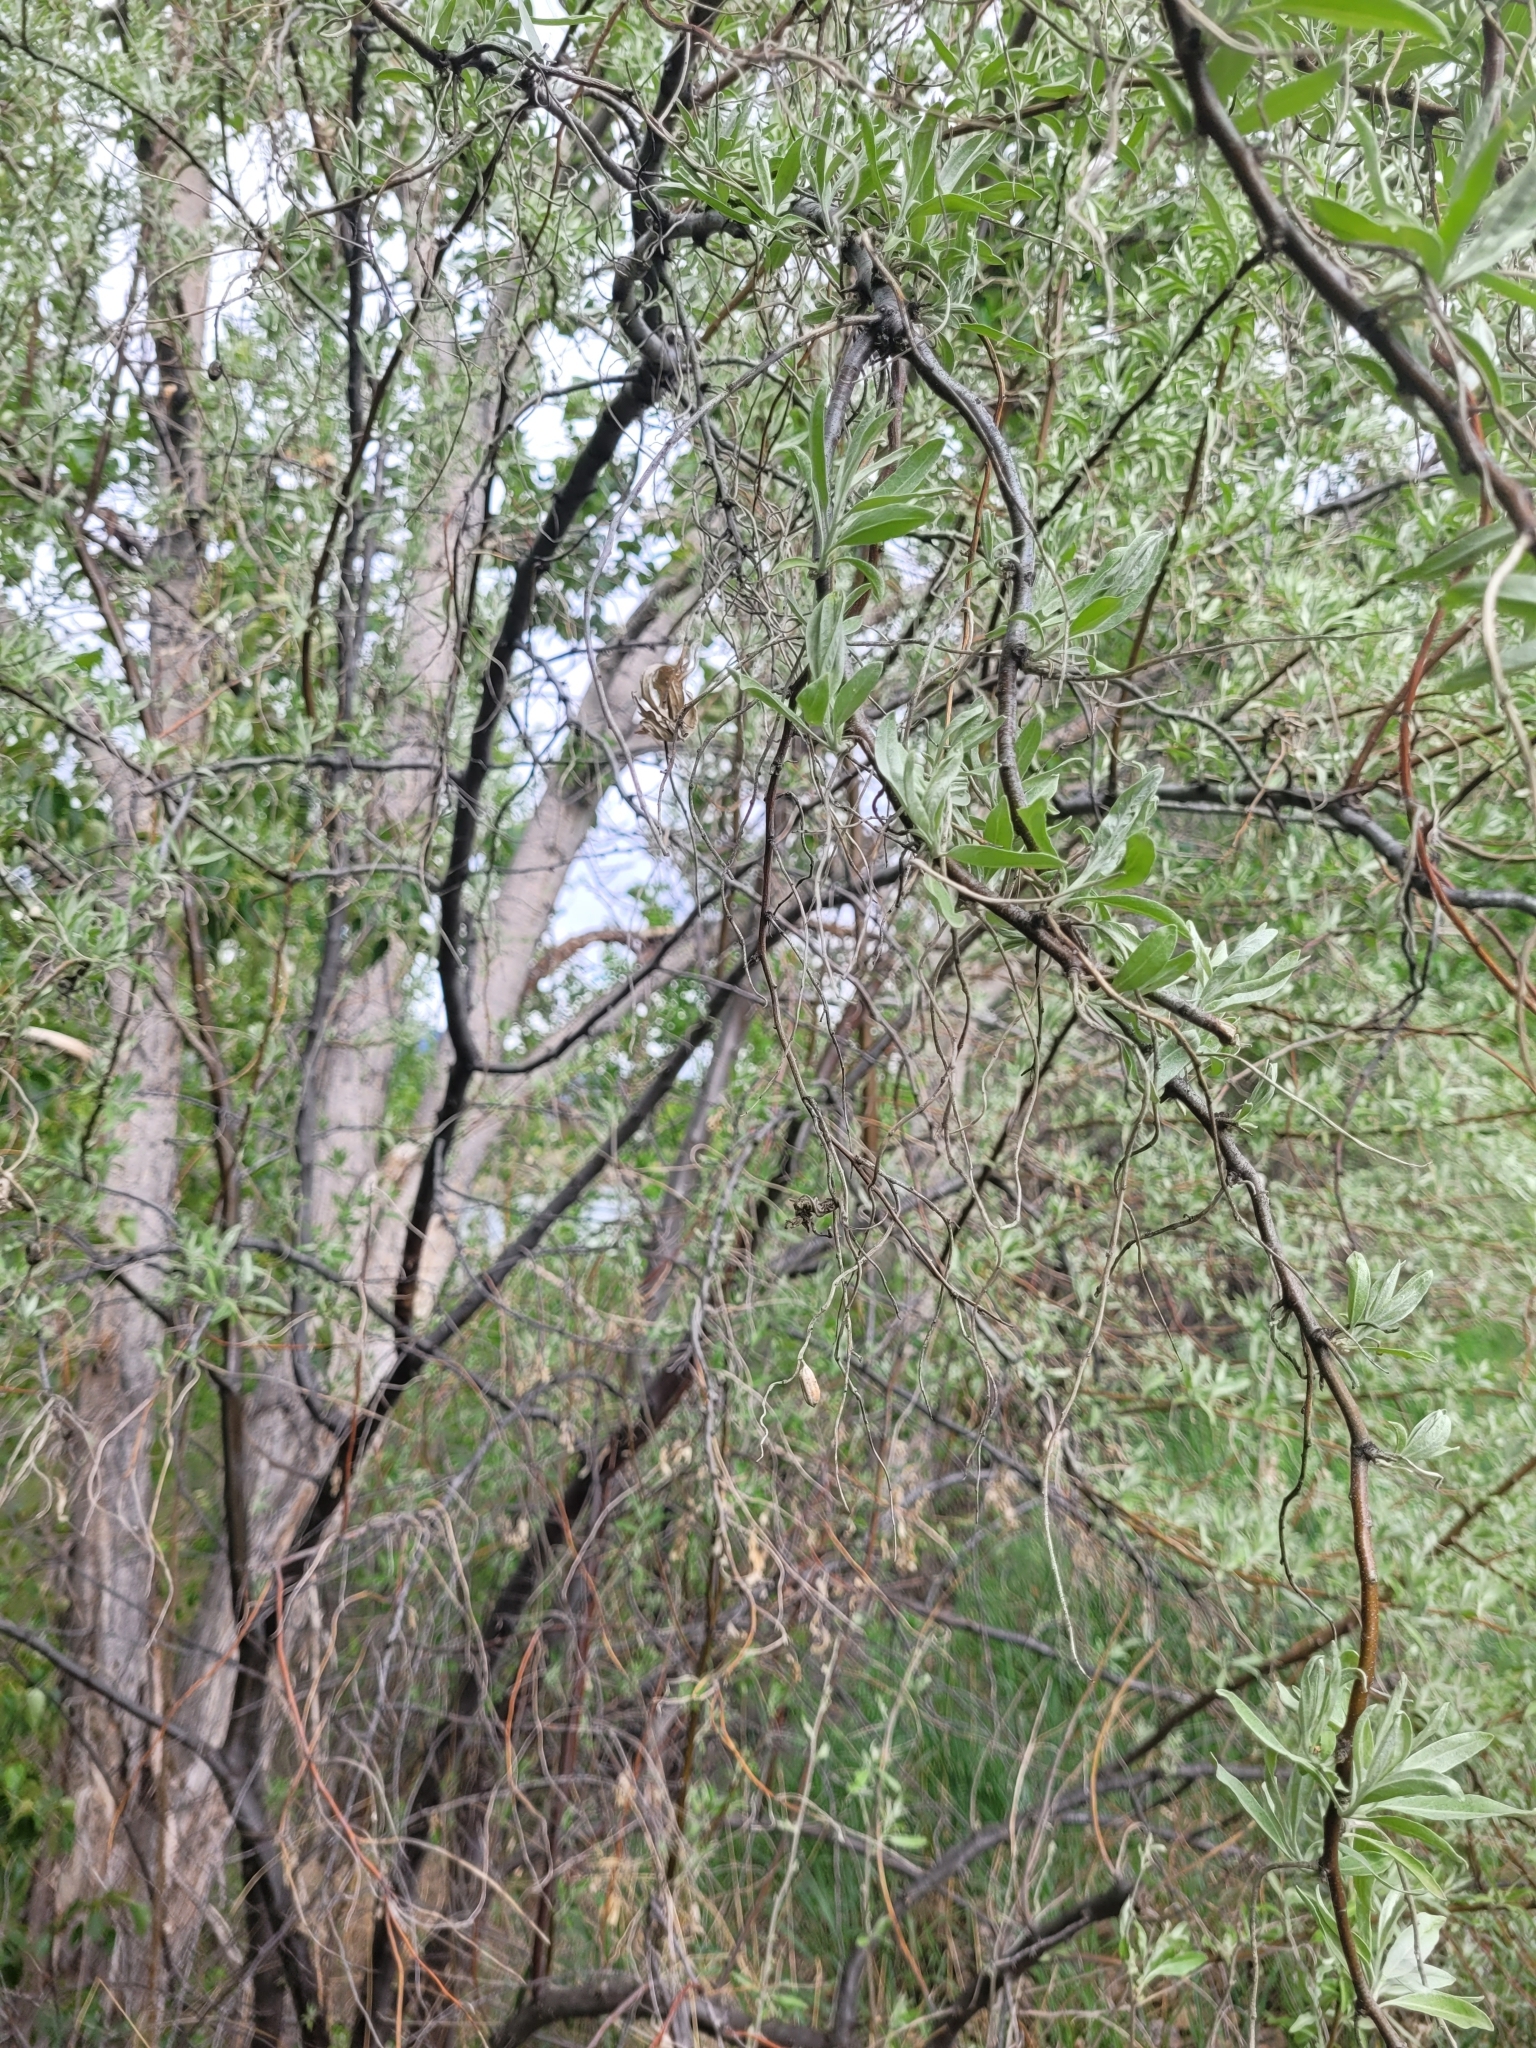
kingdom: Plantae
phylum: Tracheophyta
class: Magnoliopsida
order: Rosales
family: Elaeagnaceae
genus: Elaeagnus
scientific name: Elaeagnus angustifolia
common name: Russian olive
